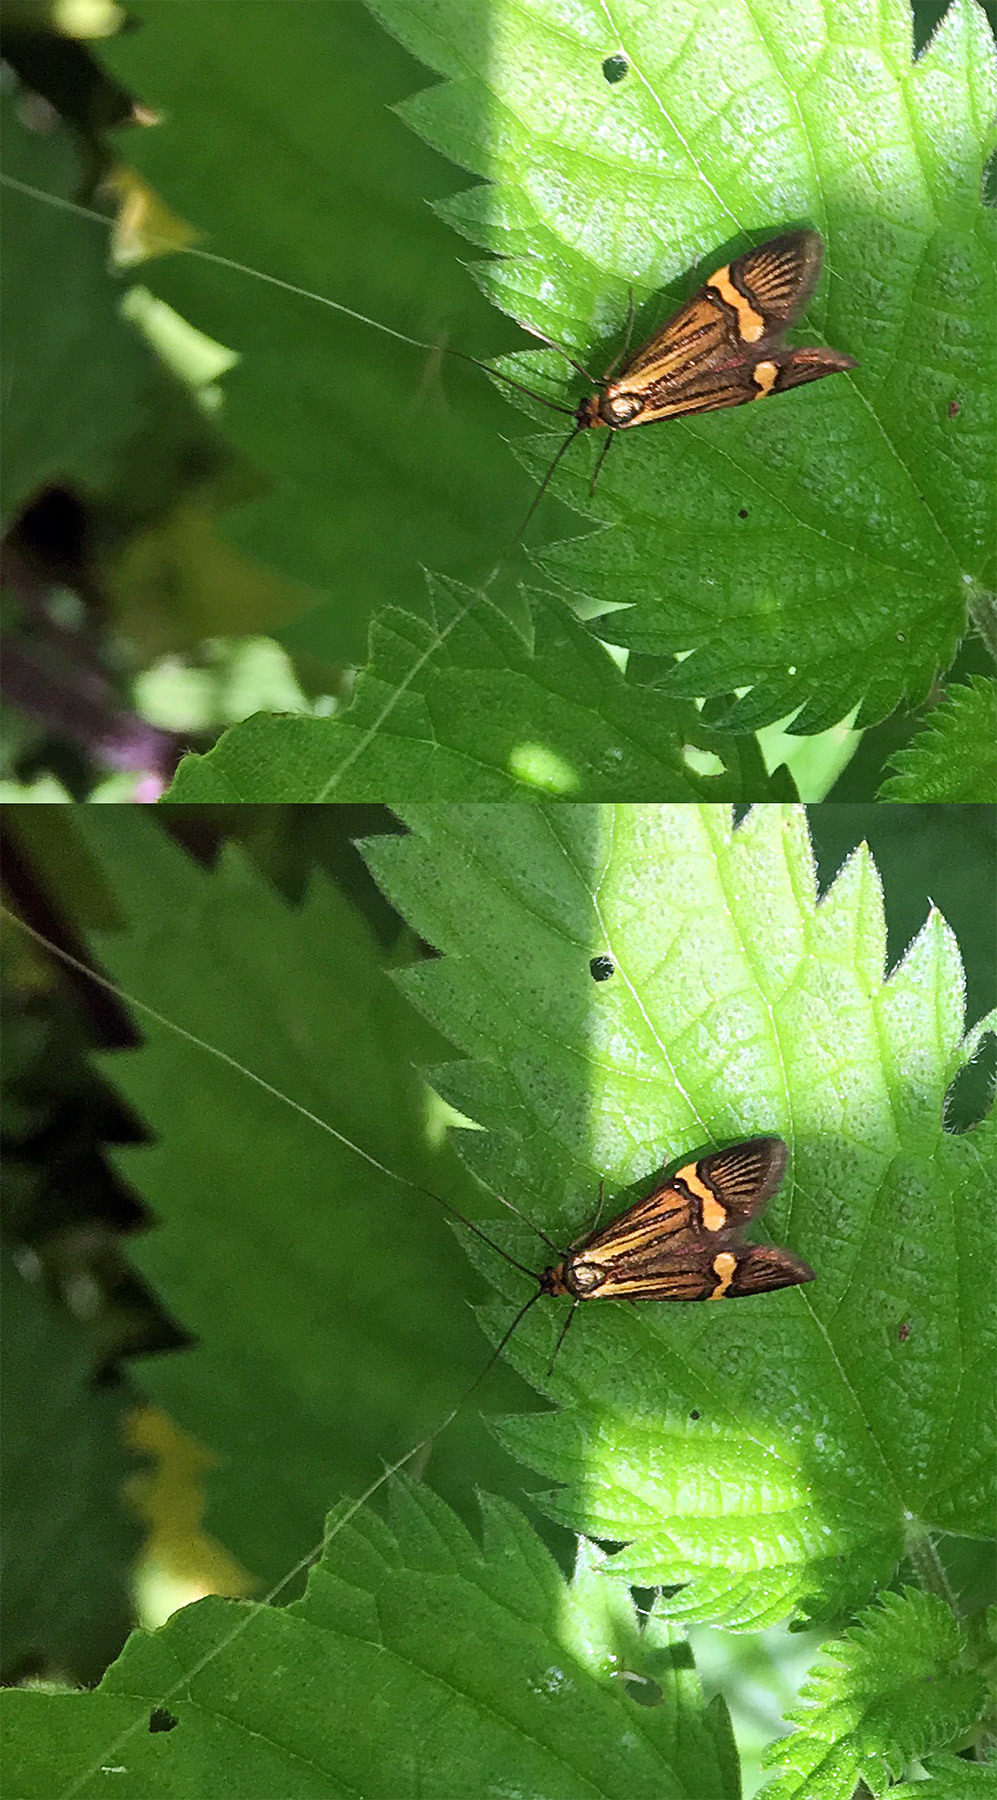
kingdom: Animalia
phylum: Arthropoda
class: Insecta
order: Lepidoptera
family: Adelidae
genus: Nemophora
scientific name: Nemophora degeerella
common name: Yellow-barred long-horn
